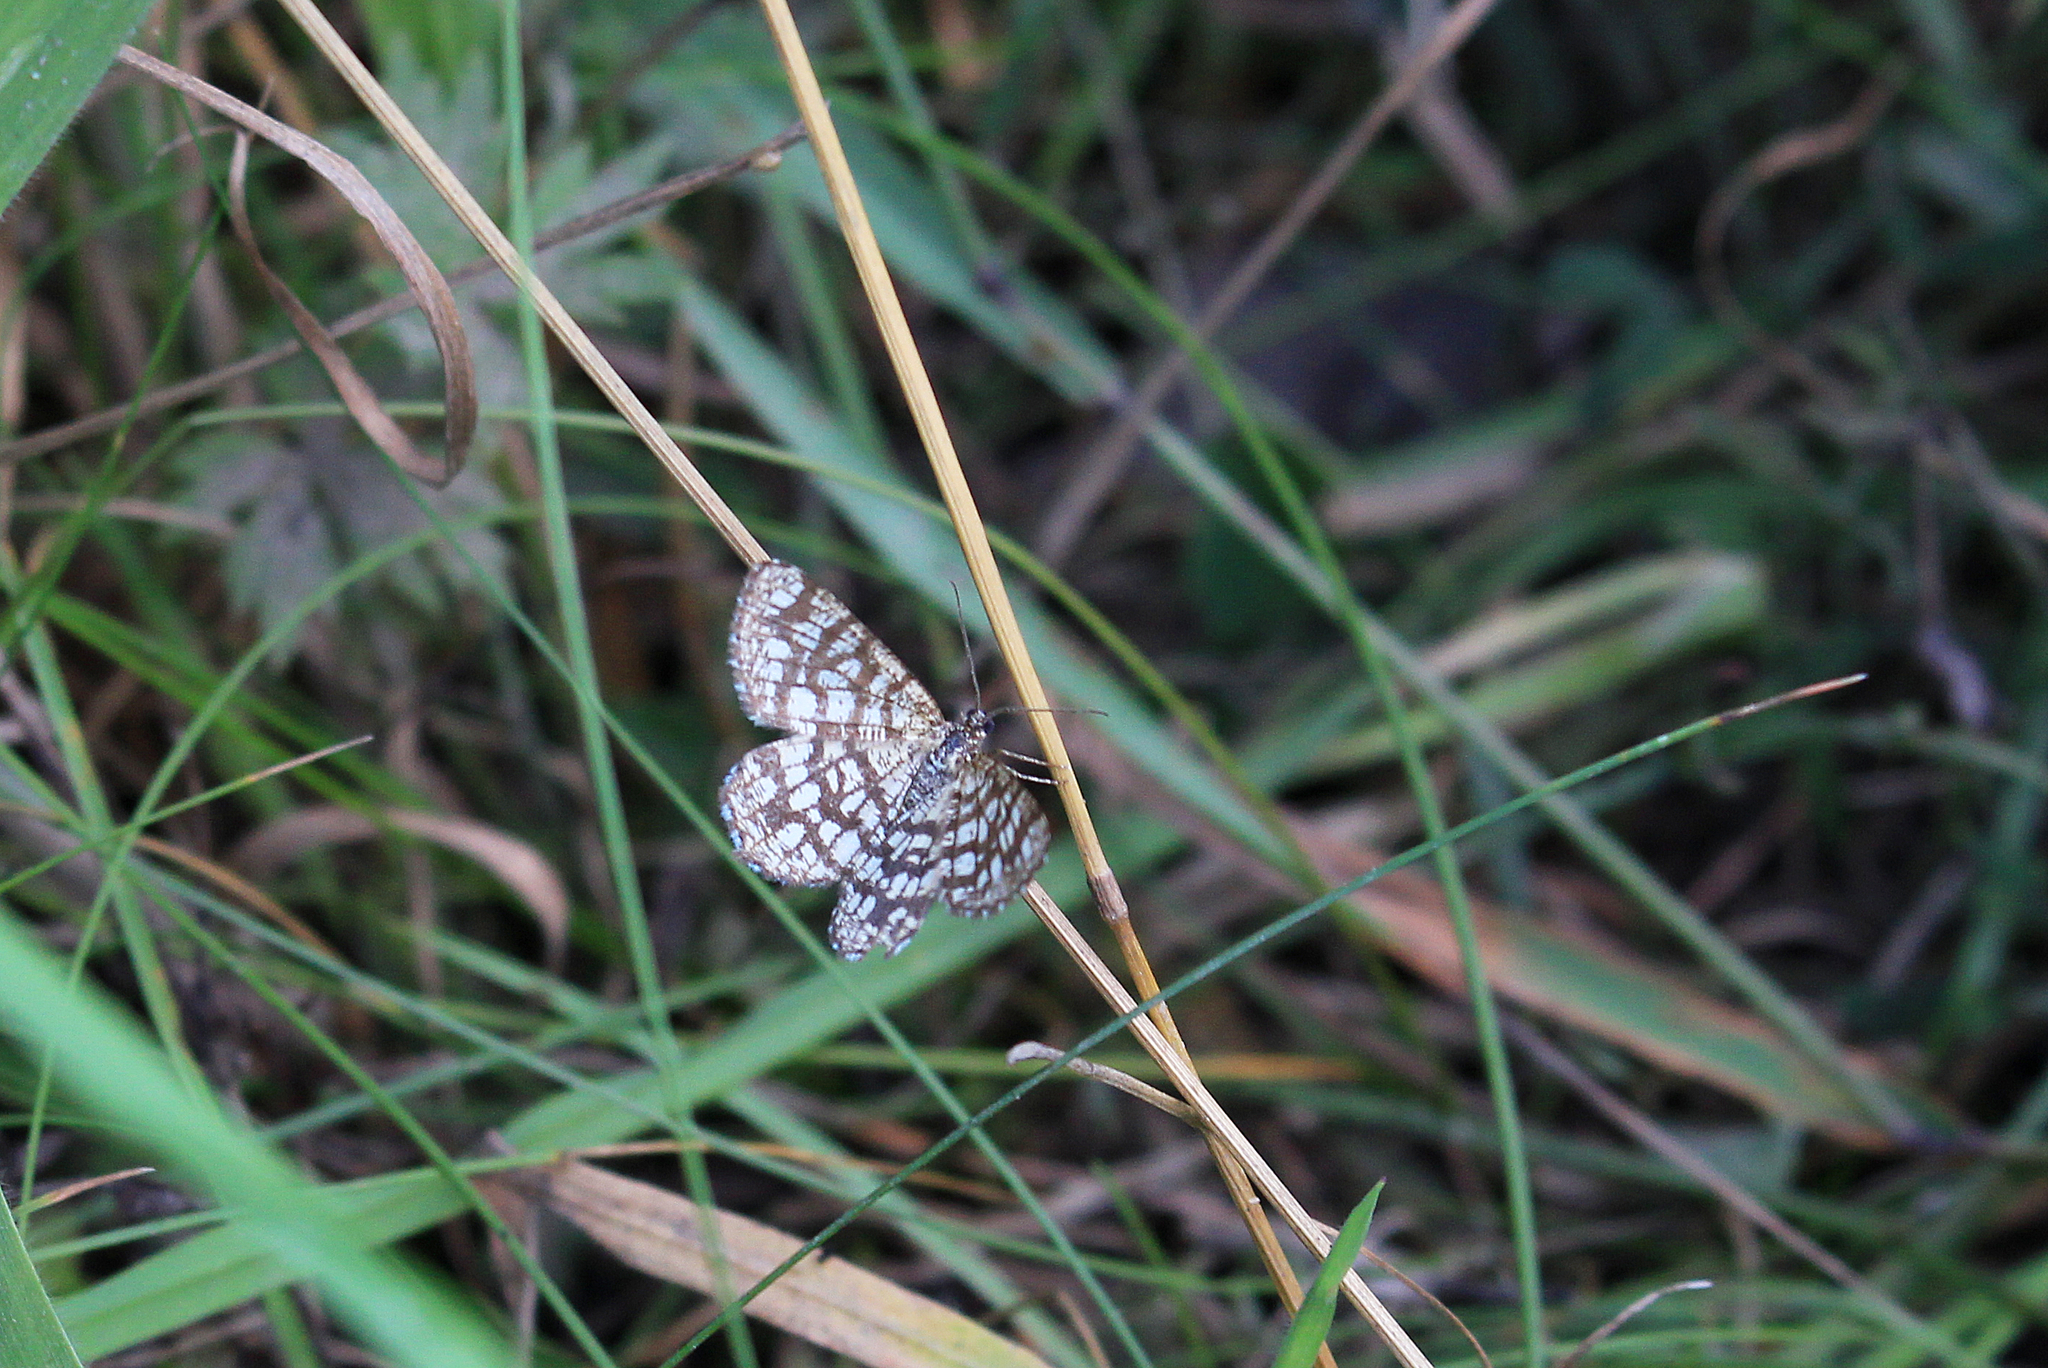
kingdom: Animalia
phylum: Arthropoda
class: Insecta
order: Lepidoptera
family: Geometridae
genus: Chiasmia
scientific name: Chiasmia clathrata
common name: Latticed heath
